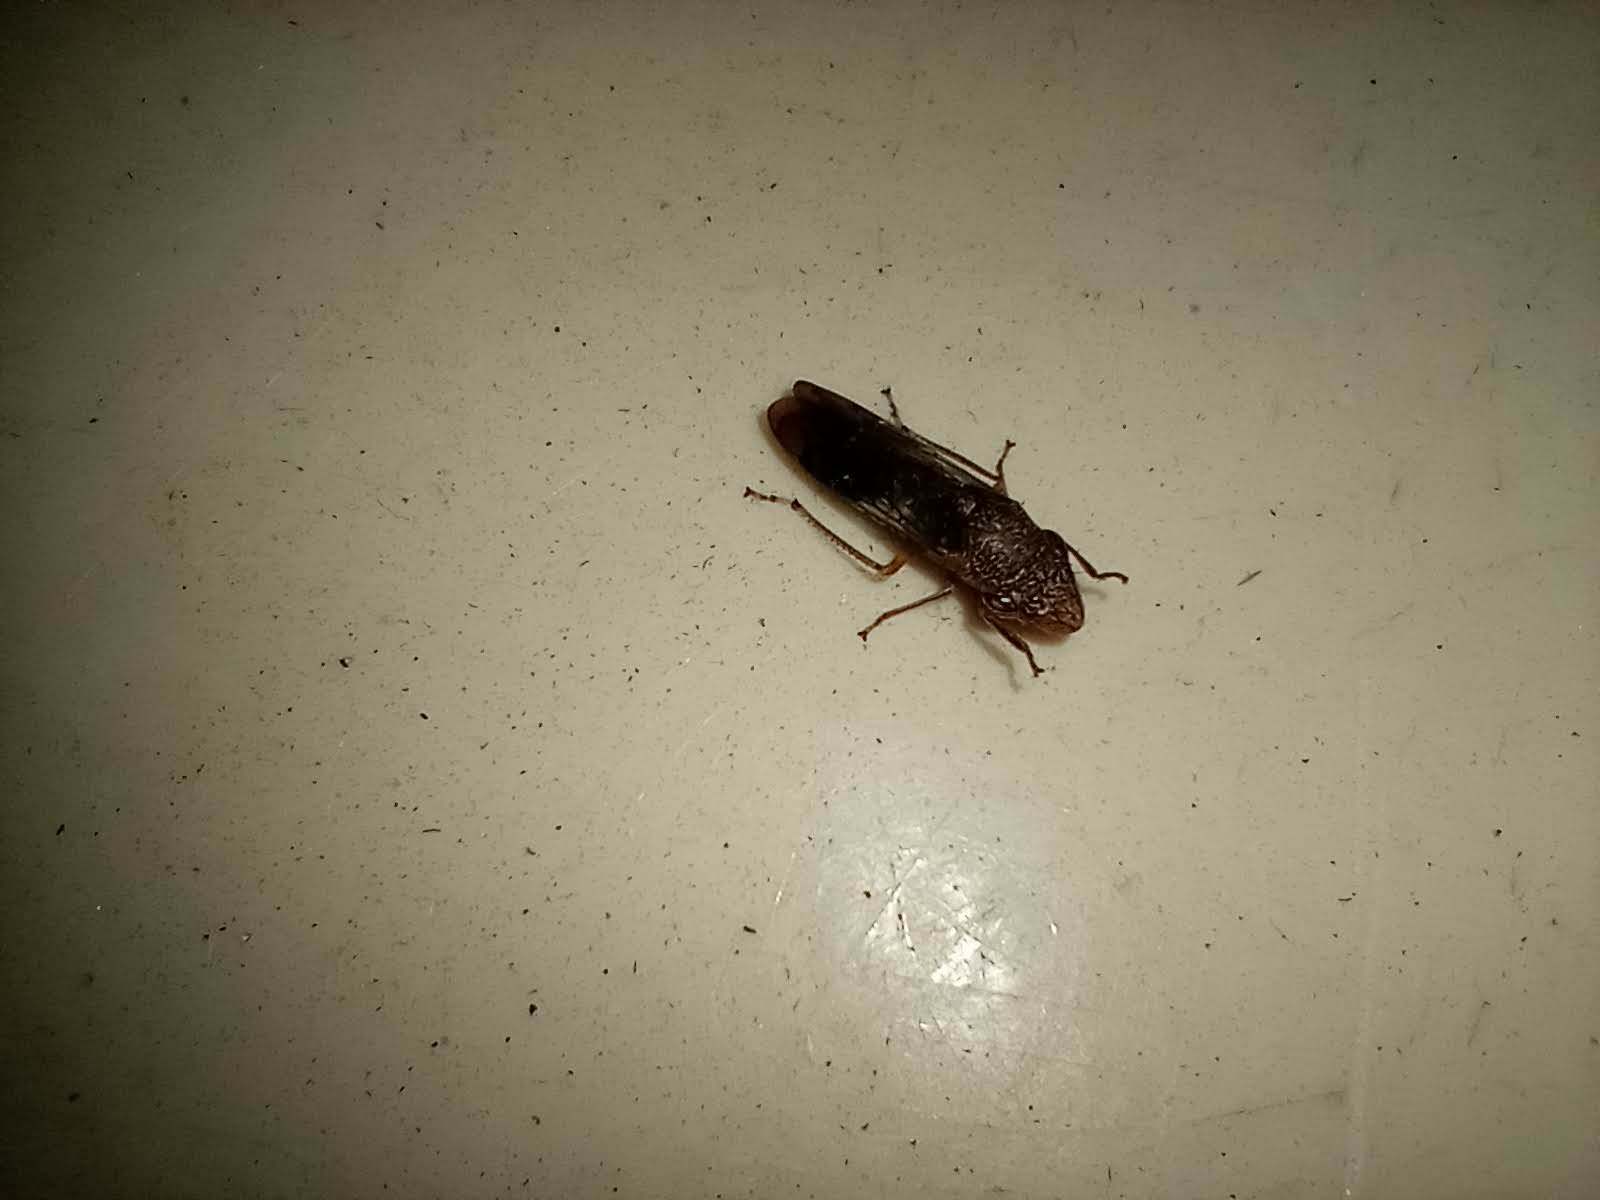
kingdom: Animalia
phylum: Arthropoda
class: Insecta
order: Hemiptera
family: Cicadellidae
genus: Homalodisca
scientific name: Homalodisca vitripennis
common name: Glassy-winged sharpshooter
